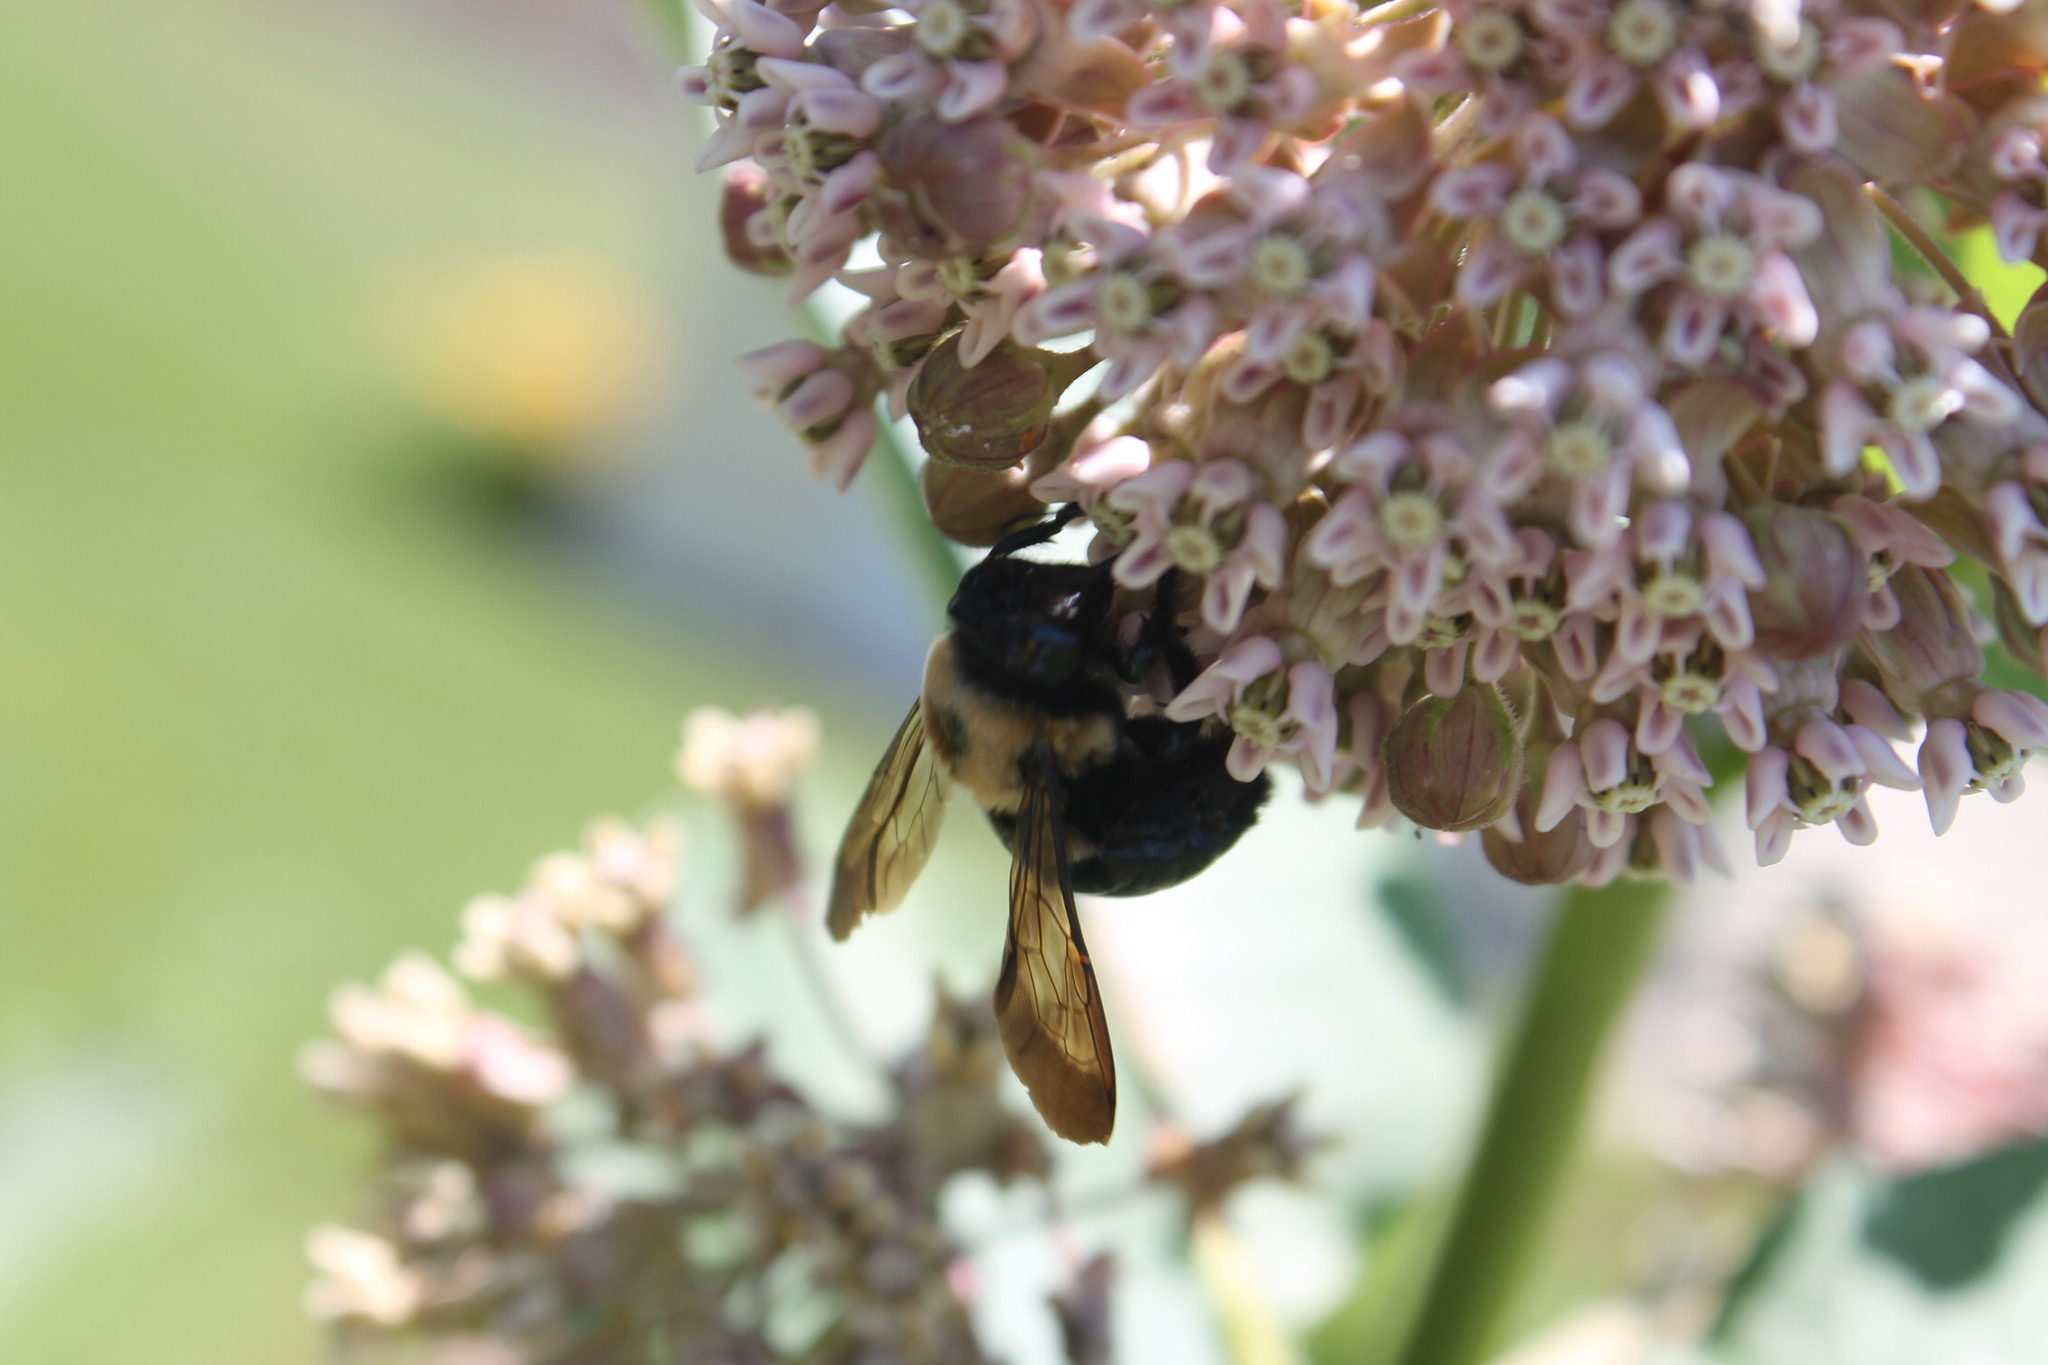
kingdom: Animalia
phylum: Arthropoda
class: Insecta
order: Hymenoptera
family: Apidae
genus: Xylocopa
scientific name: Xylocopa virginica
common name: Carpenter bee
